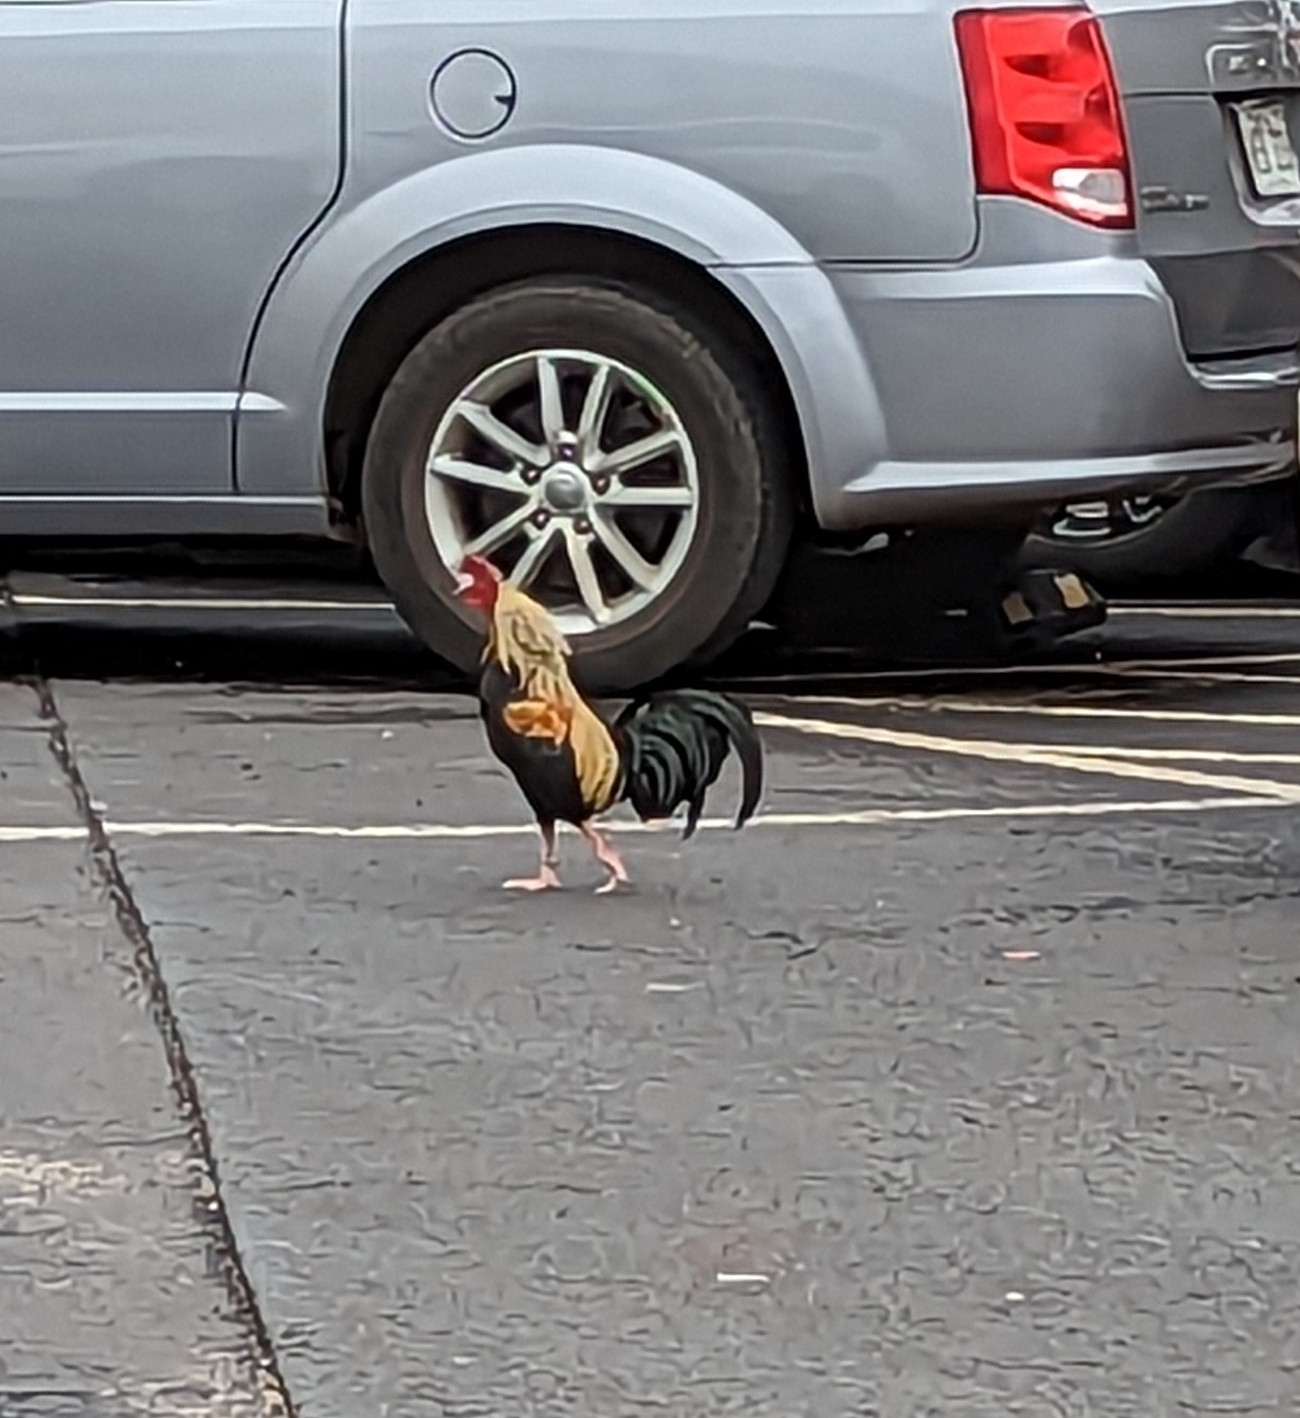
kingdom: Animalia
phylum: Chordata
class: Aves
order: Galliformes
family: Phasianidae
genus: Gallus
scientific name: Gallus gallus
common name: Red junglefowl
